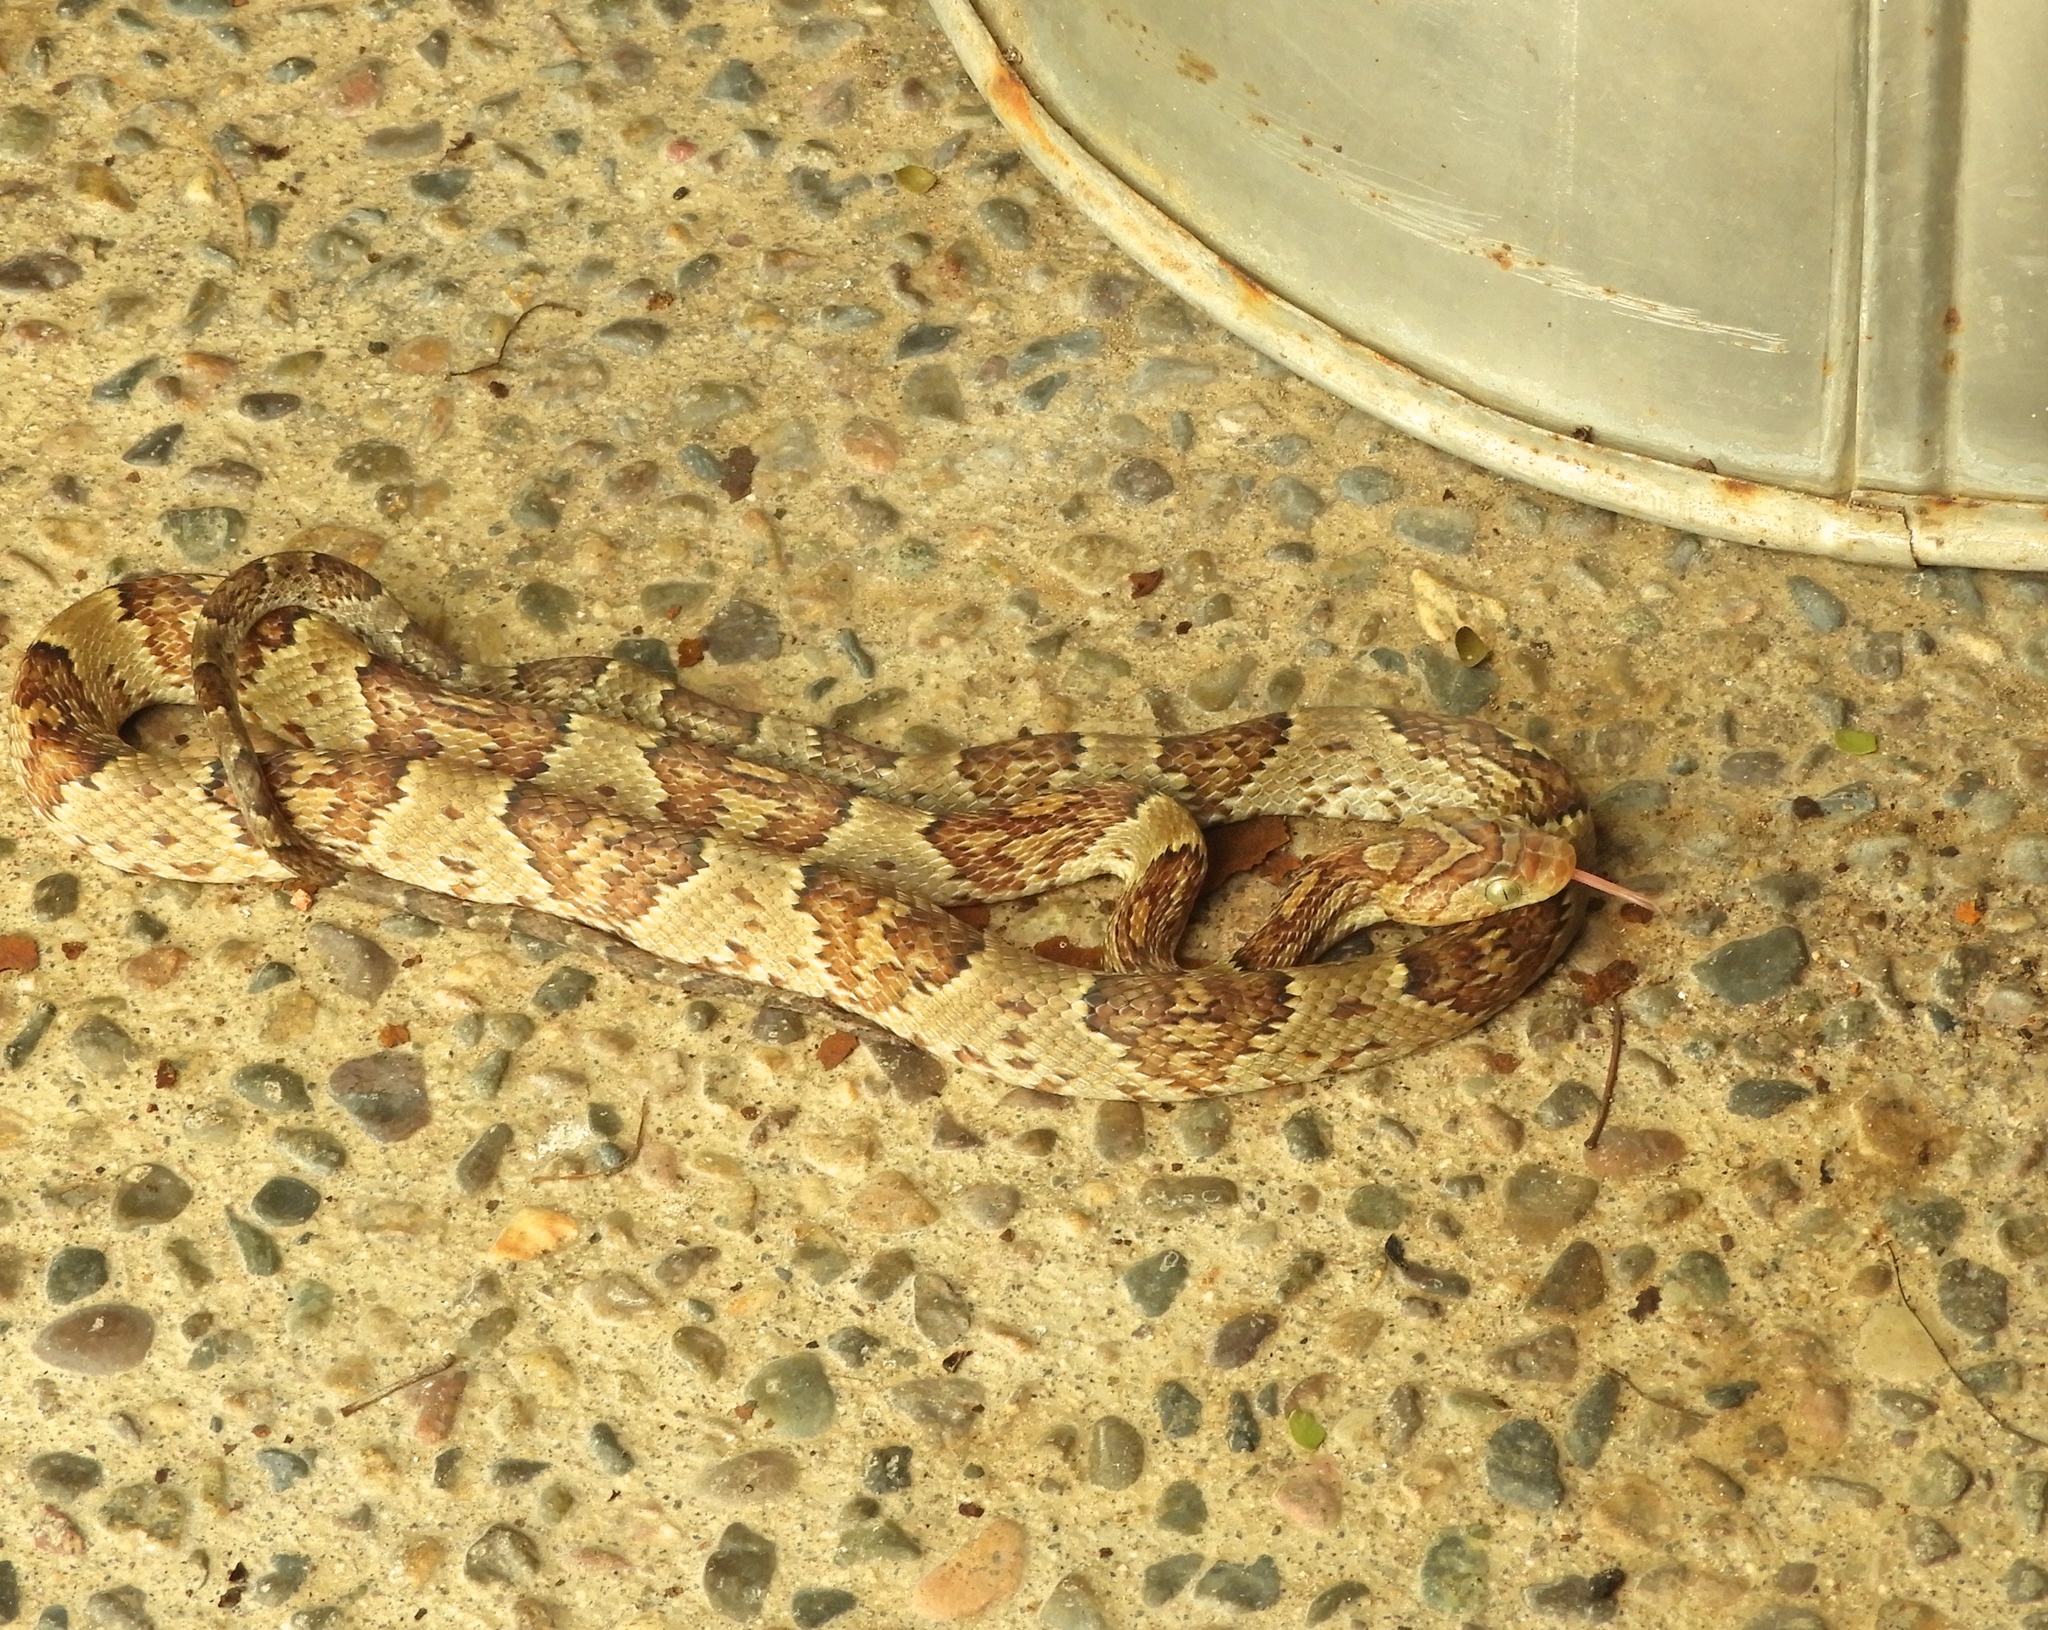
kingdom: Animalia
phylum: Chordata
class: Squamata
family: Colubridae
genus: Trimorphodon
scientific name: Trimorphodon paucimaculatus
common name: Sinaloan lyresnake
